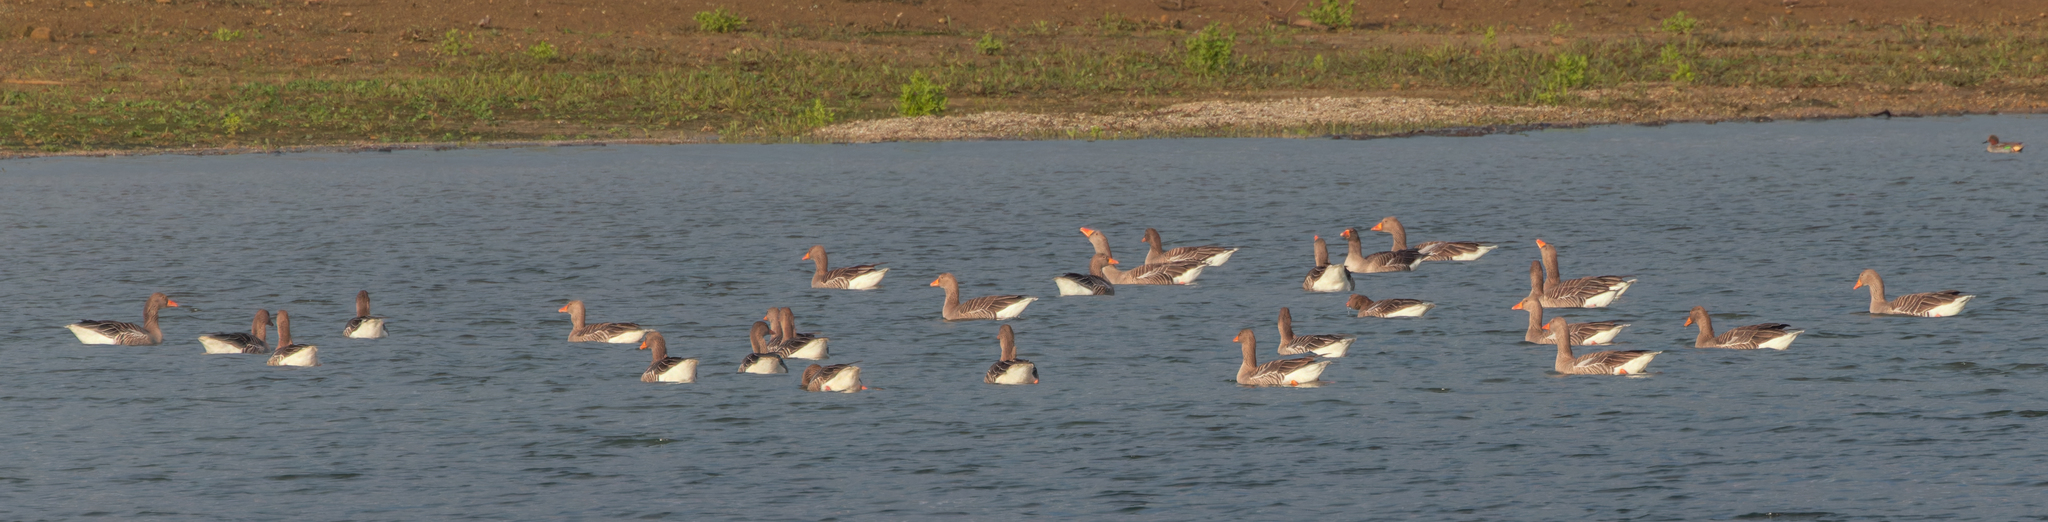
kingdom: Animalia
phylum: Chordata
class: Aves
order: Anseriformes
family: Anatidae
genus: Anser
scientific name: Anser anser
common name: Greylag goose
